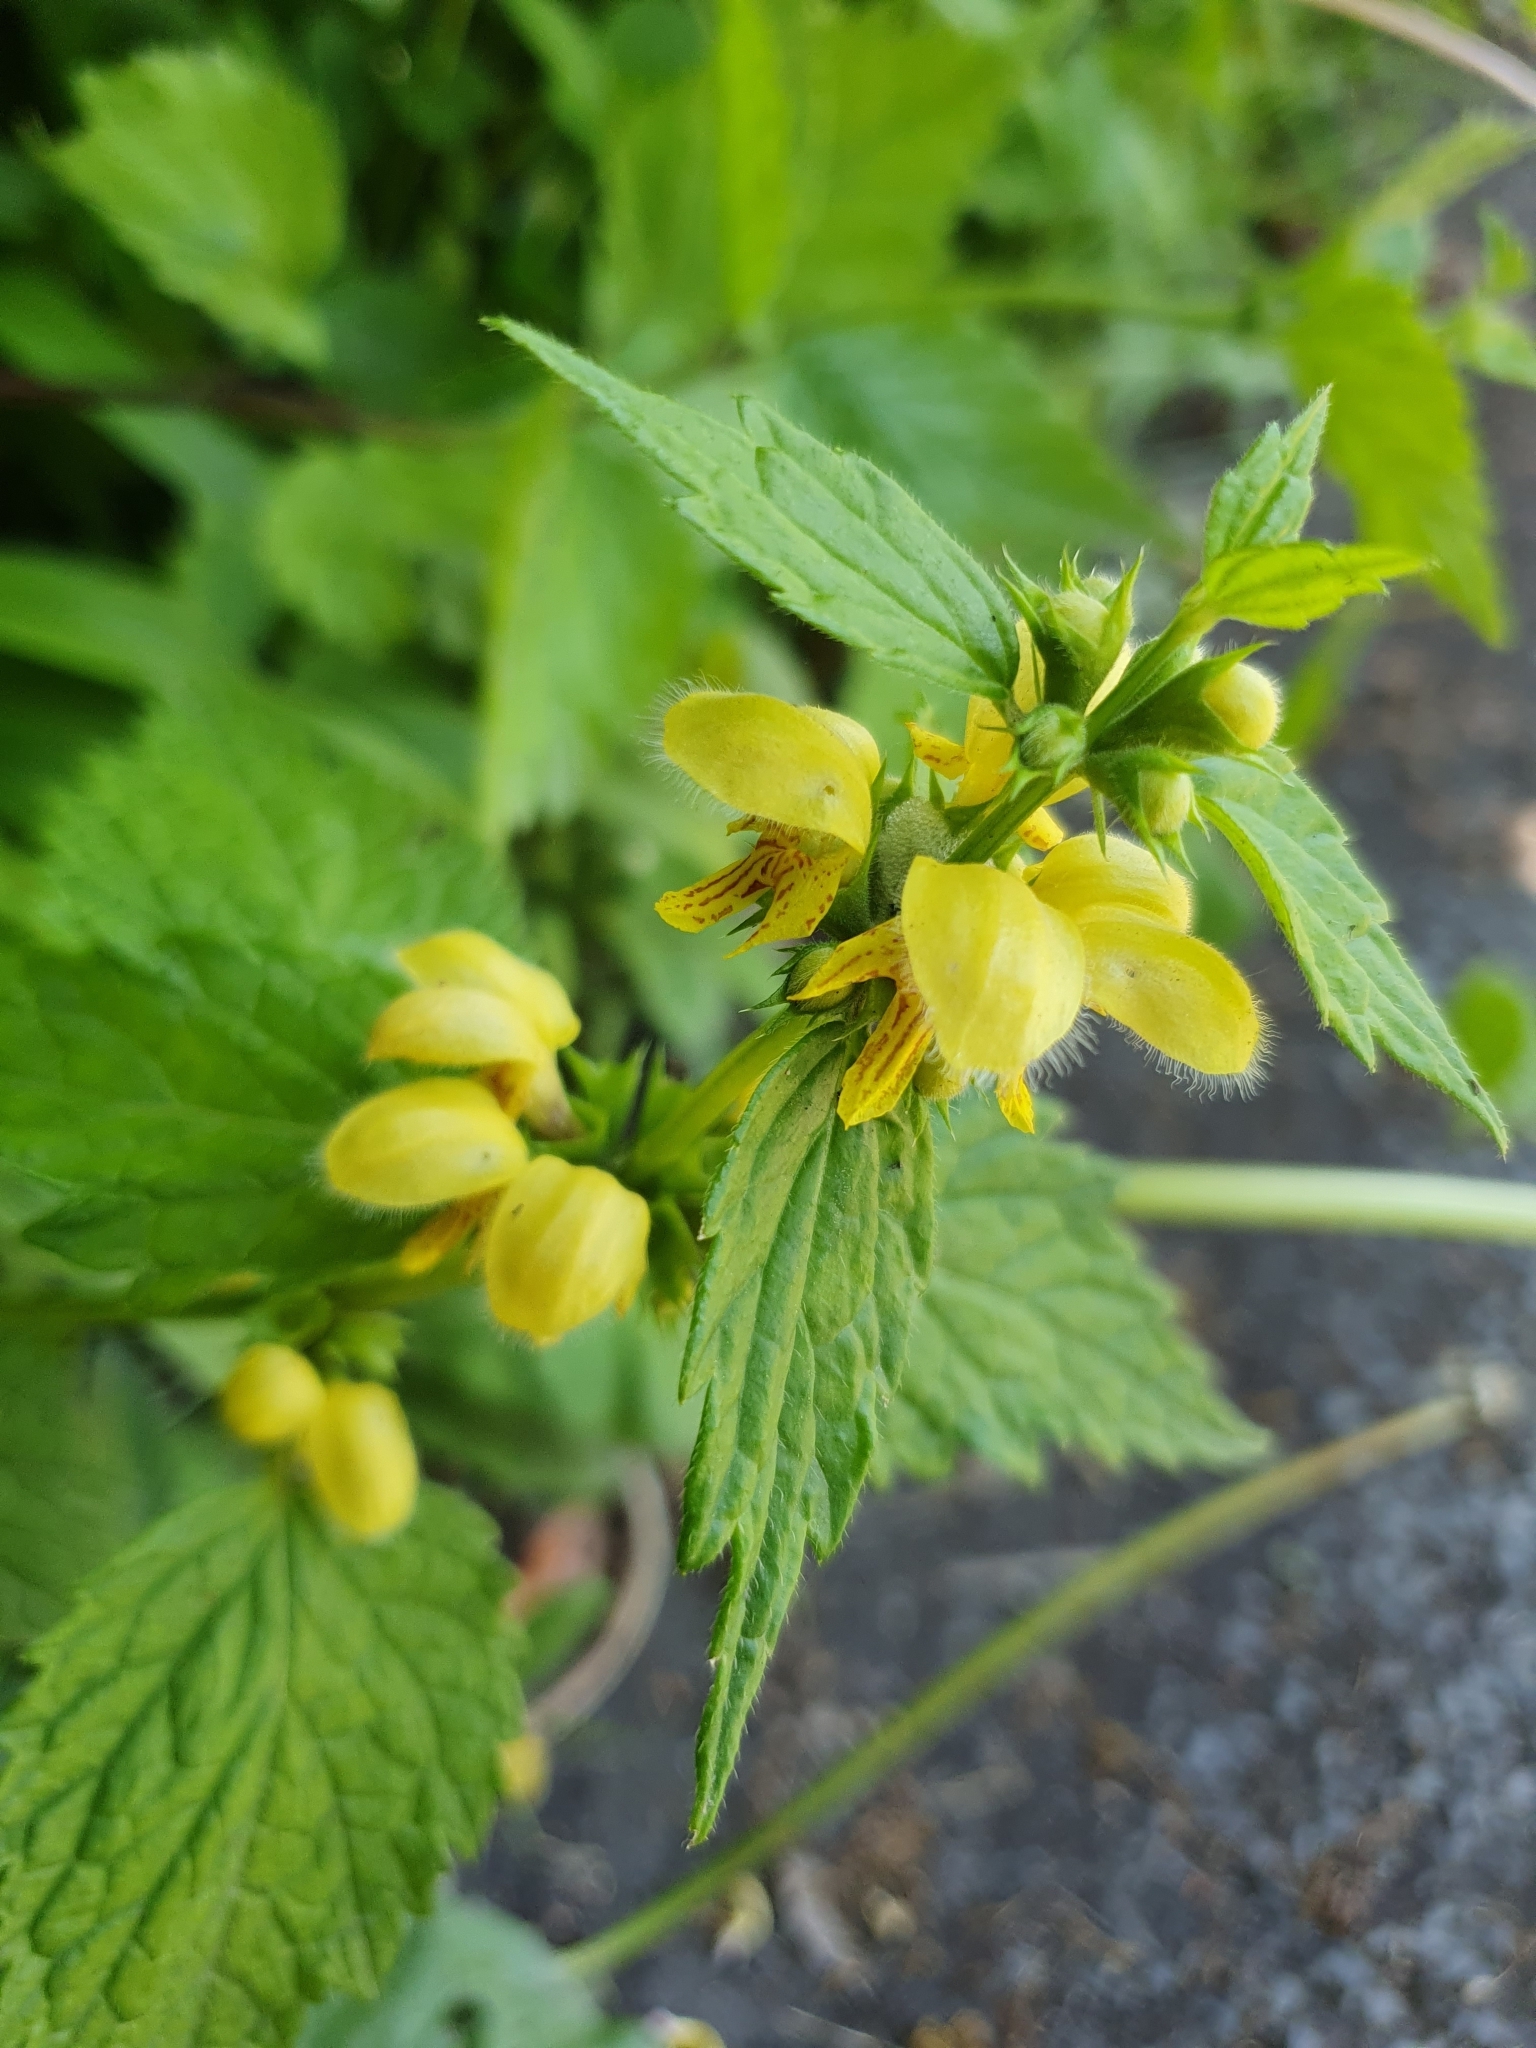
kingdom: Plantae
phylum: Tracheophyta
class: Magnoliopsida
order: Lamiales
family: Lamiaceae
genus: Lamium
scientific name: Lamium galeobdolon
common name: Yellow archangel
